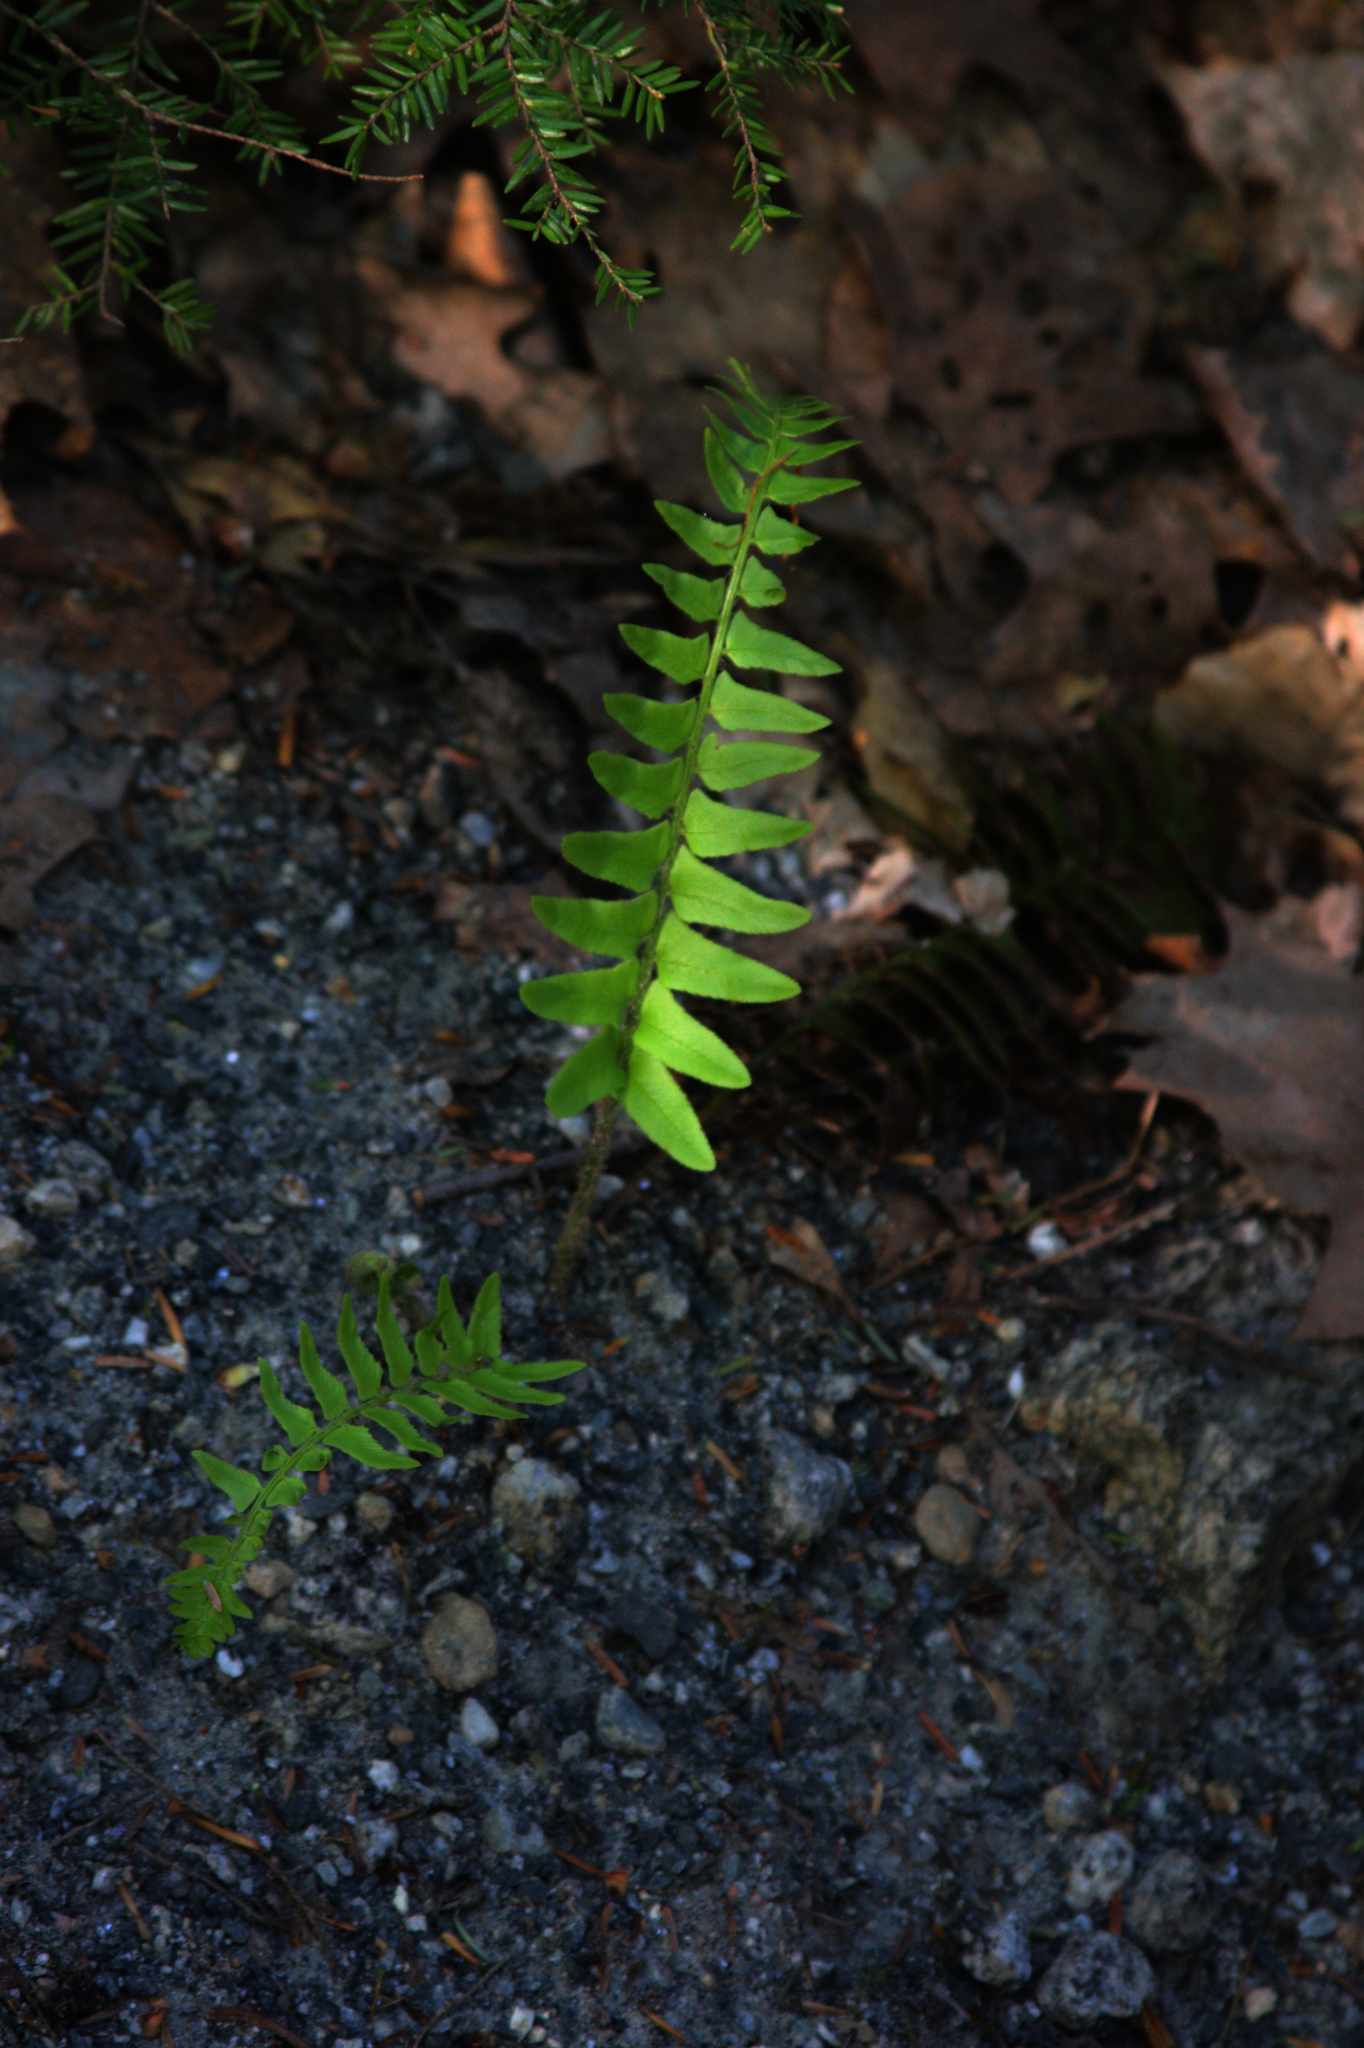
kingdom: Plantae
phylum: Tracheophyta
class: Polypodiopsida
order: Polypodiales
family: Dryopteridaceae
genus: Polystichum
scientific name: Polystichum acrostichoides
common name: Christmas fern
